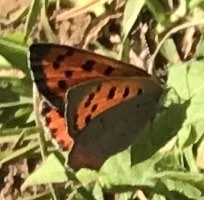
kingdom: Animalia
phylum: Arthropoda
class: Insecta
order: Lepidoptera
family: Lycaenidae
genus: Lycaena
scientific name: Lycaena phlaeas
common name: Small copper
